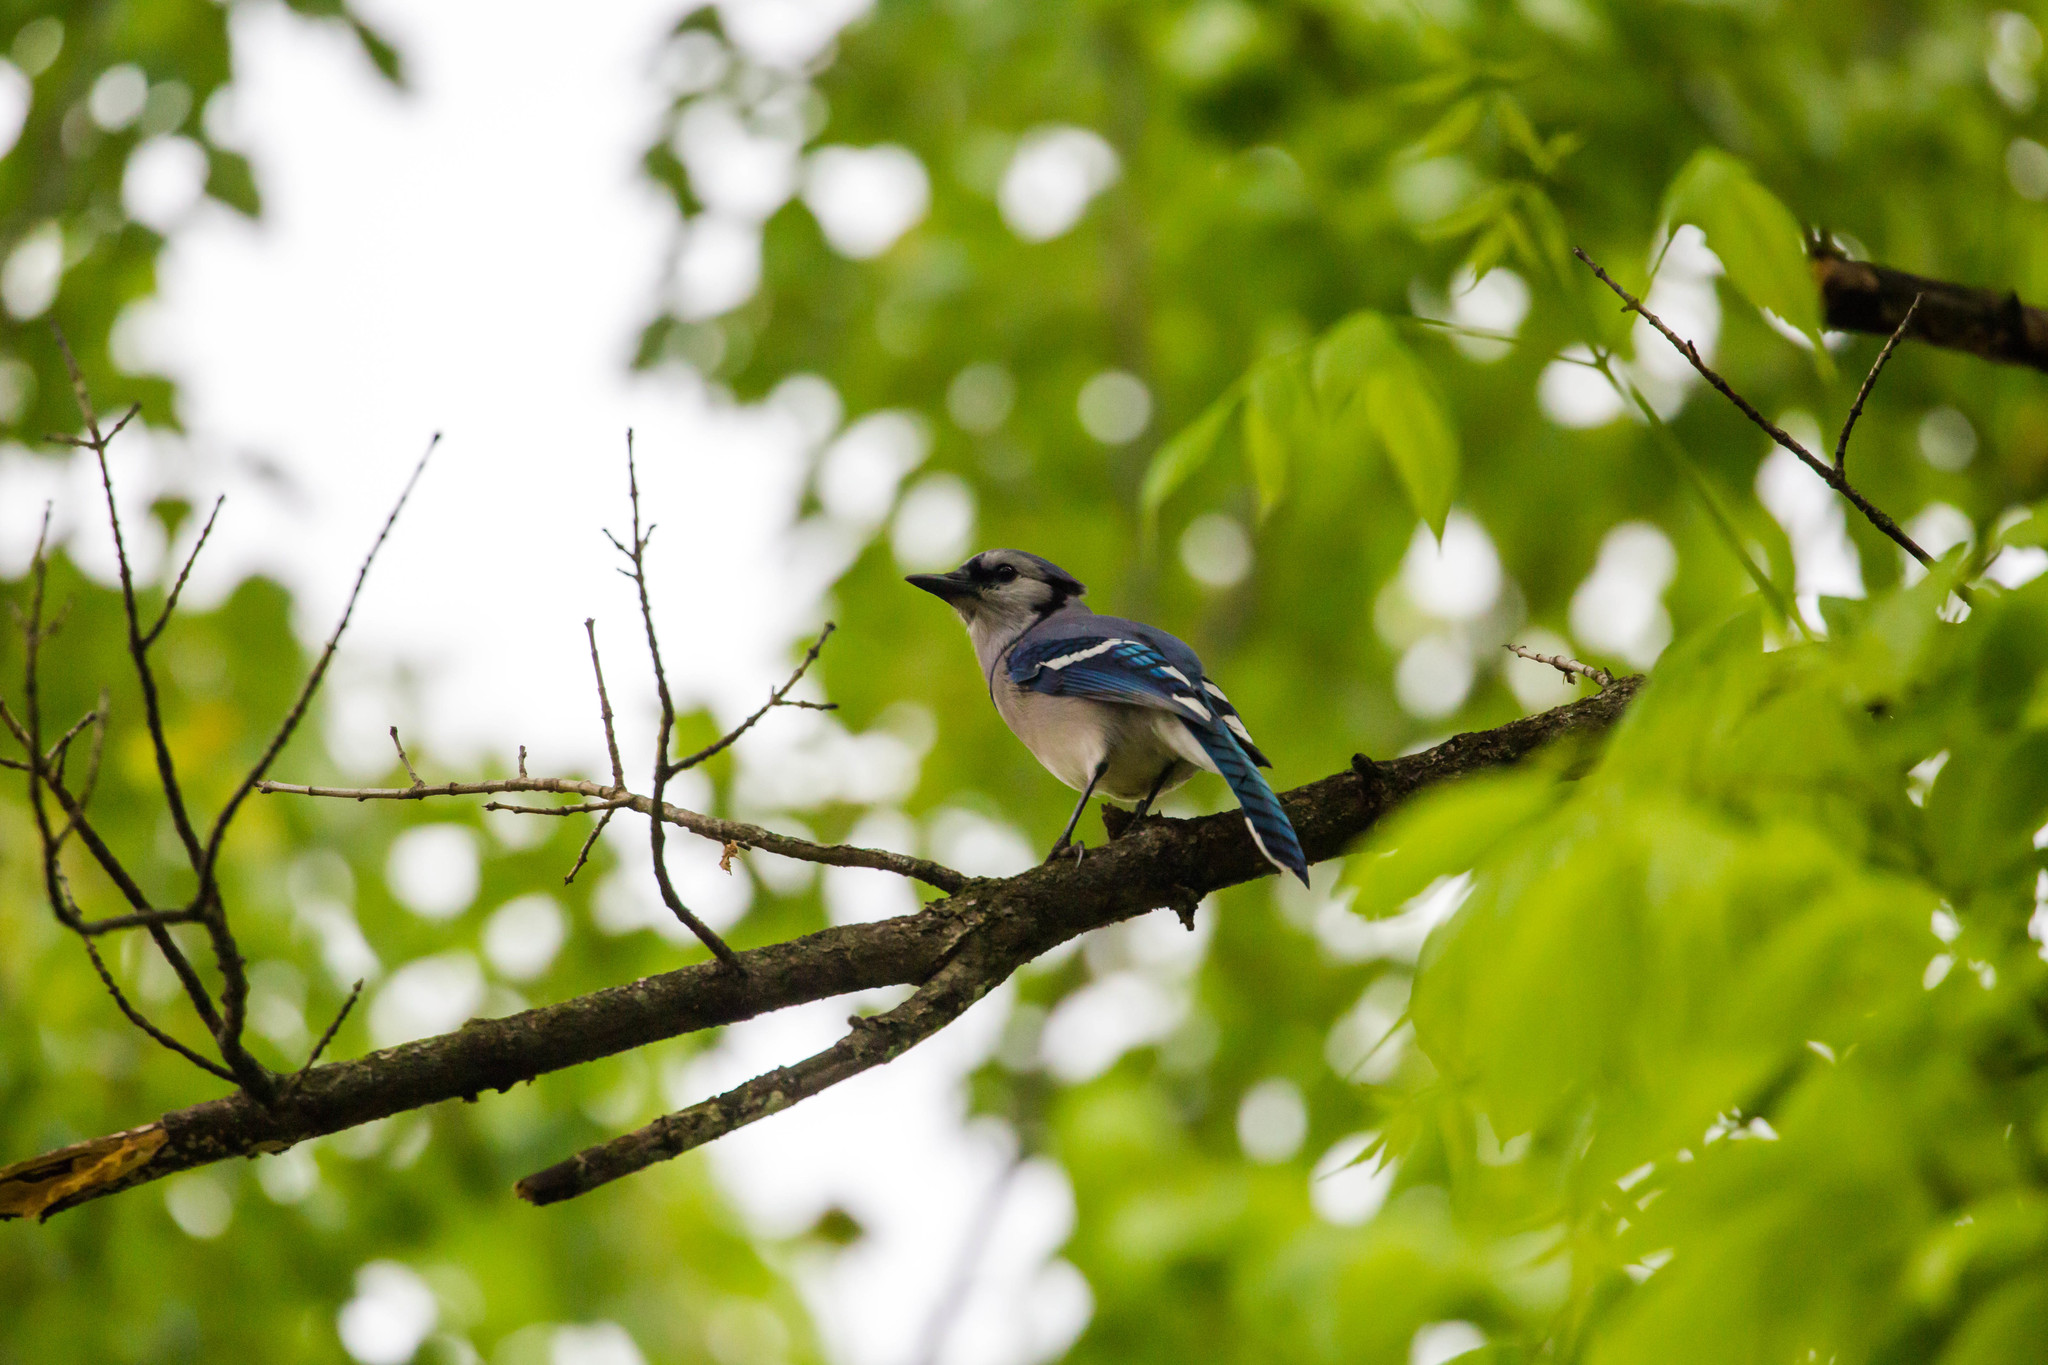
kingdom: Animalia
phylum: Chordata
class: Aves
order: Passeriformes
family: Corvidae
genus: Cyanocitta
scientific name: Cyanocitta cristata
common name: Blue jay
